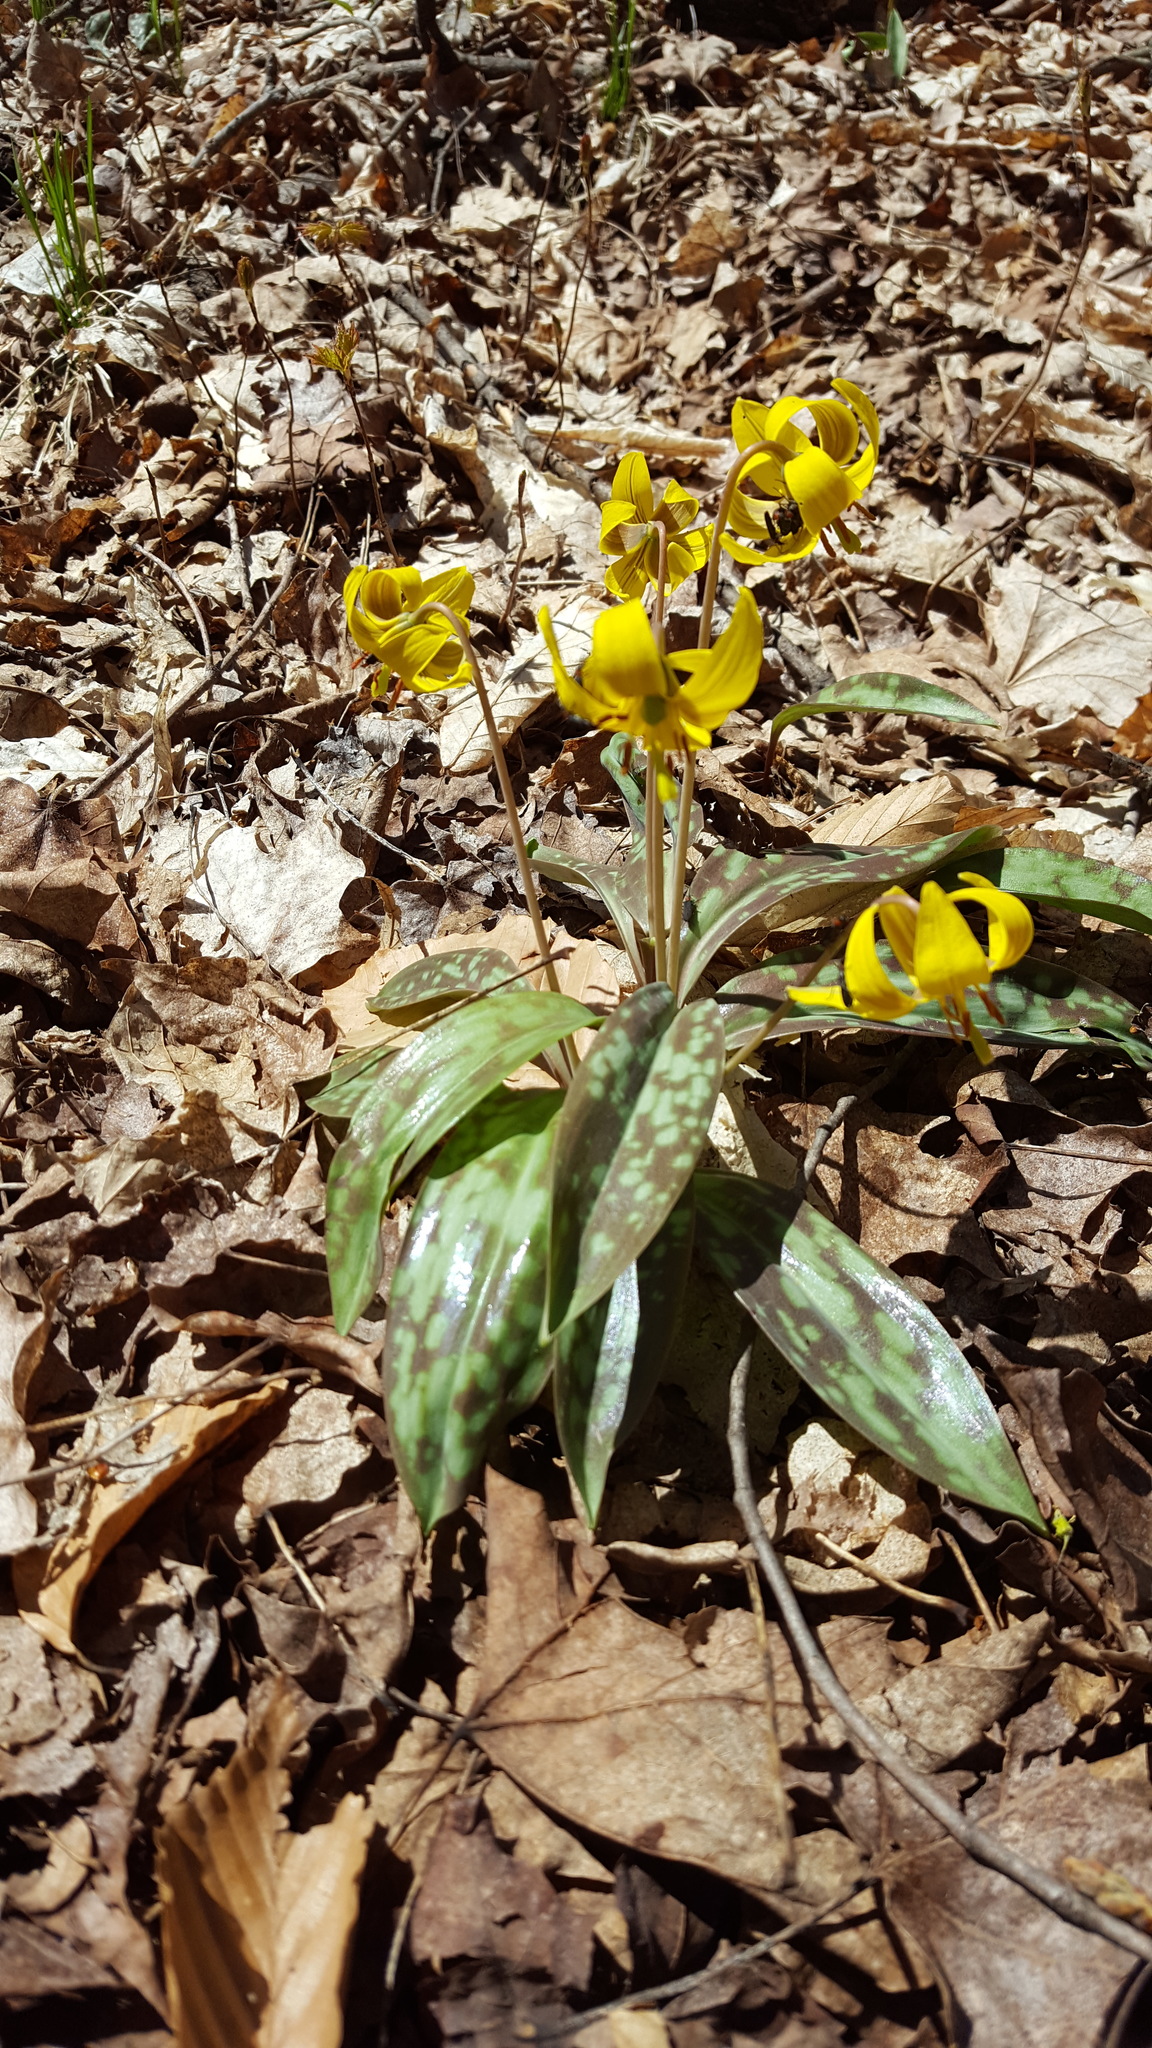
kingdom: Plantae
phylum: Tracheophyta
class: Liliopsida
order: Liliales
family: Liliaceae
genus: Erythronium
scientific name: Erythronium americanum
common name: Yellow adder's-tongue
